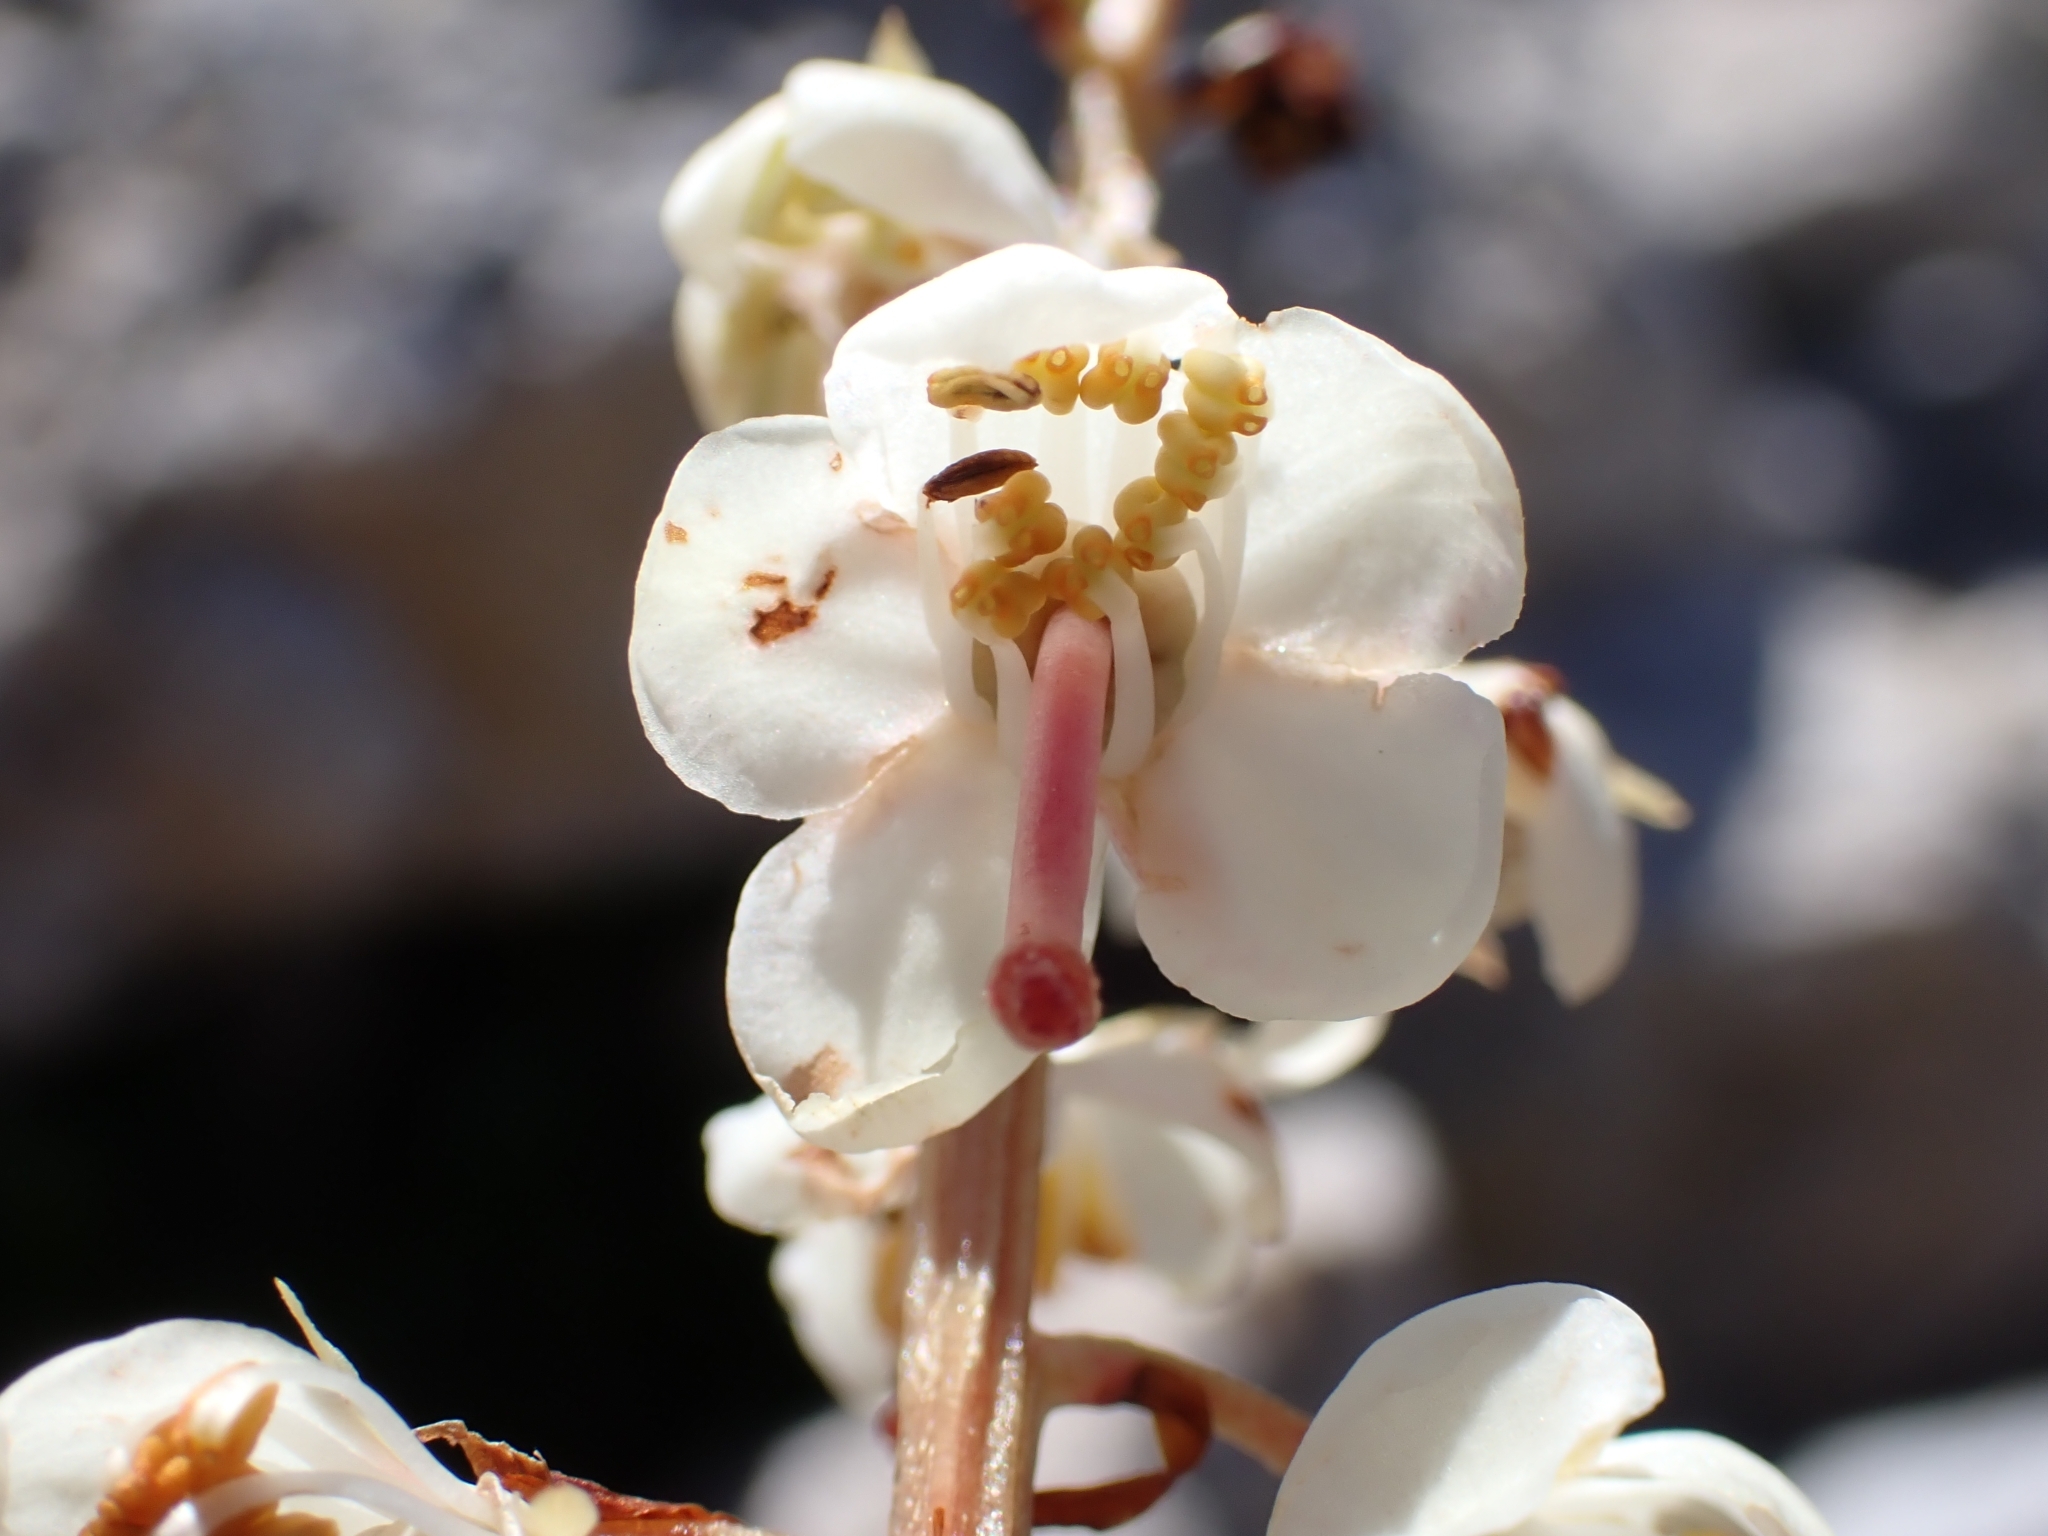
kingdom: Plantae
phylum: Tracheophyta
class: Magnoliopsida
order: Ericales
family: Ericaceae
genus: Pyrola
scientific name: Pyrola rotundifolia
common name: Round-leaved wintergreen
